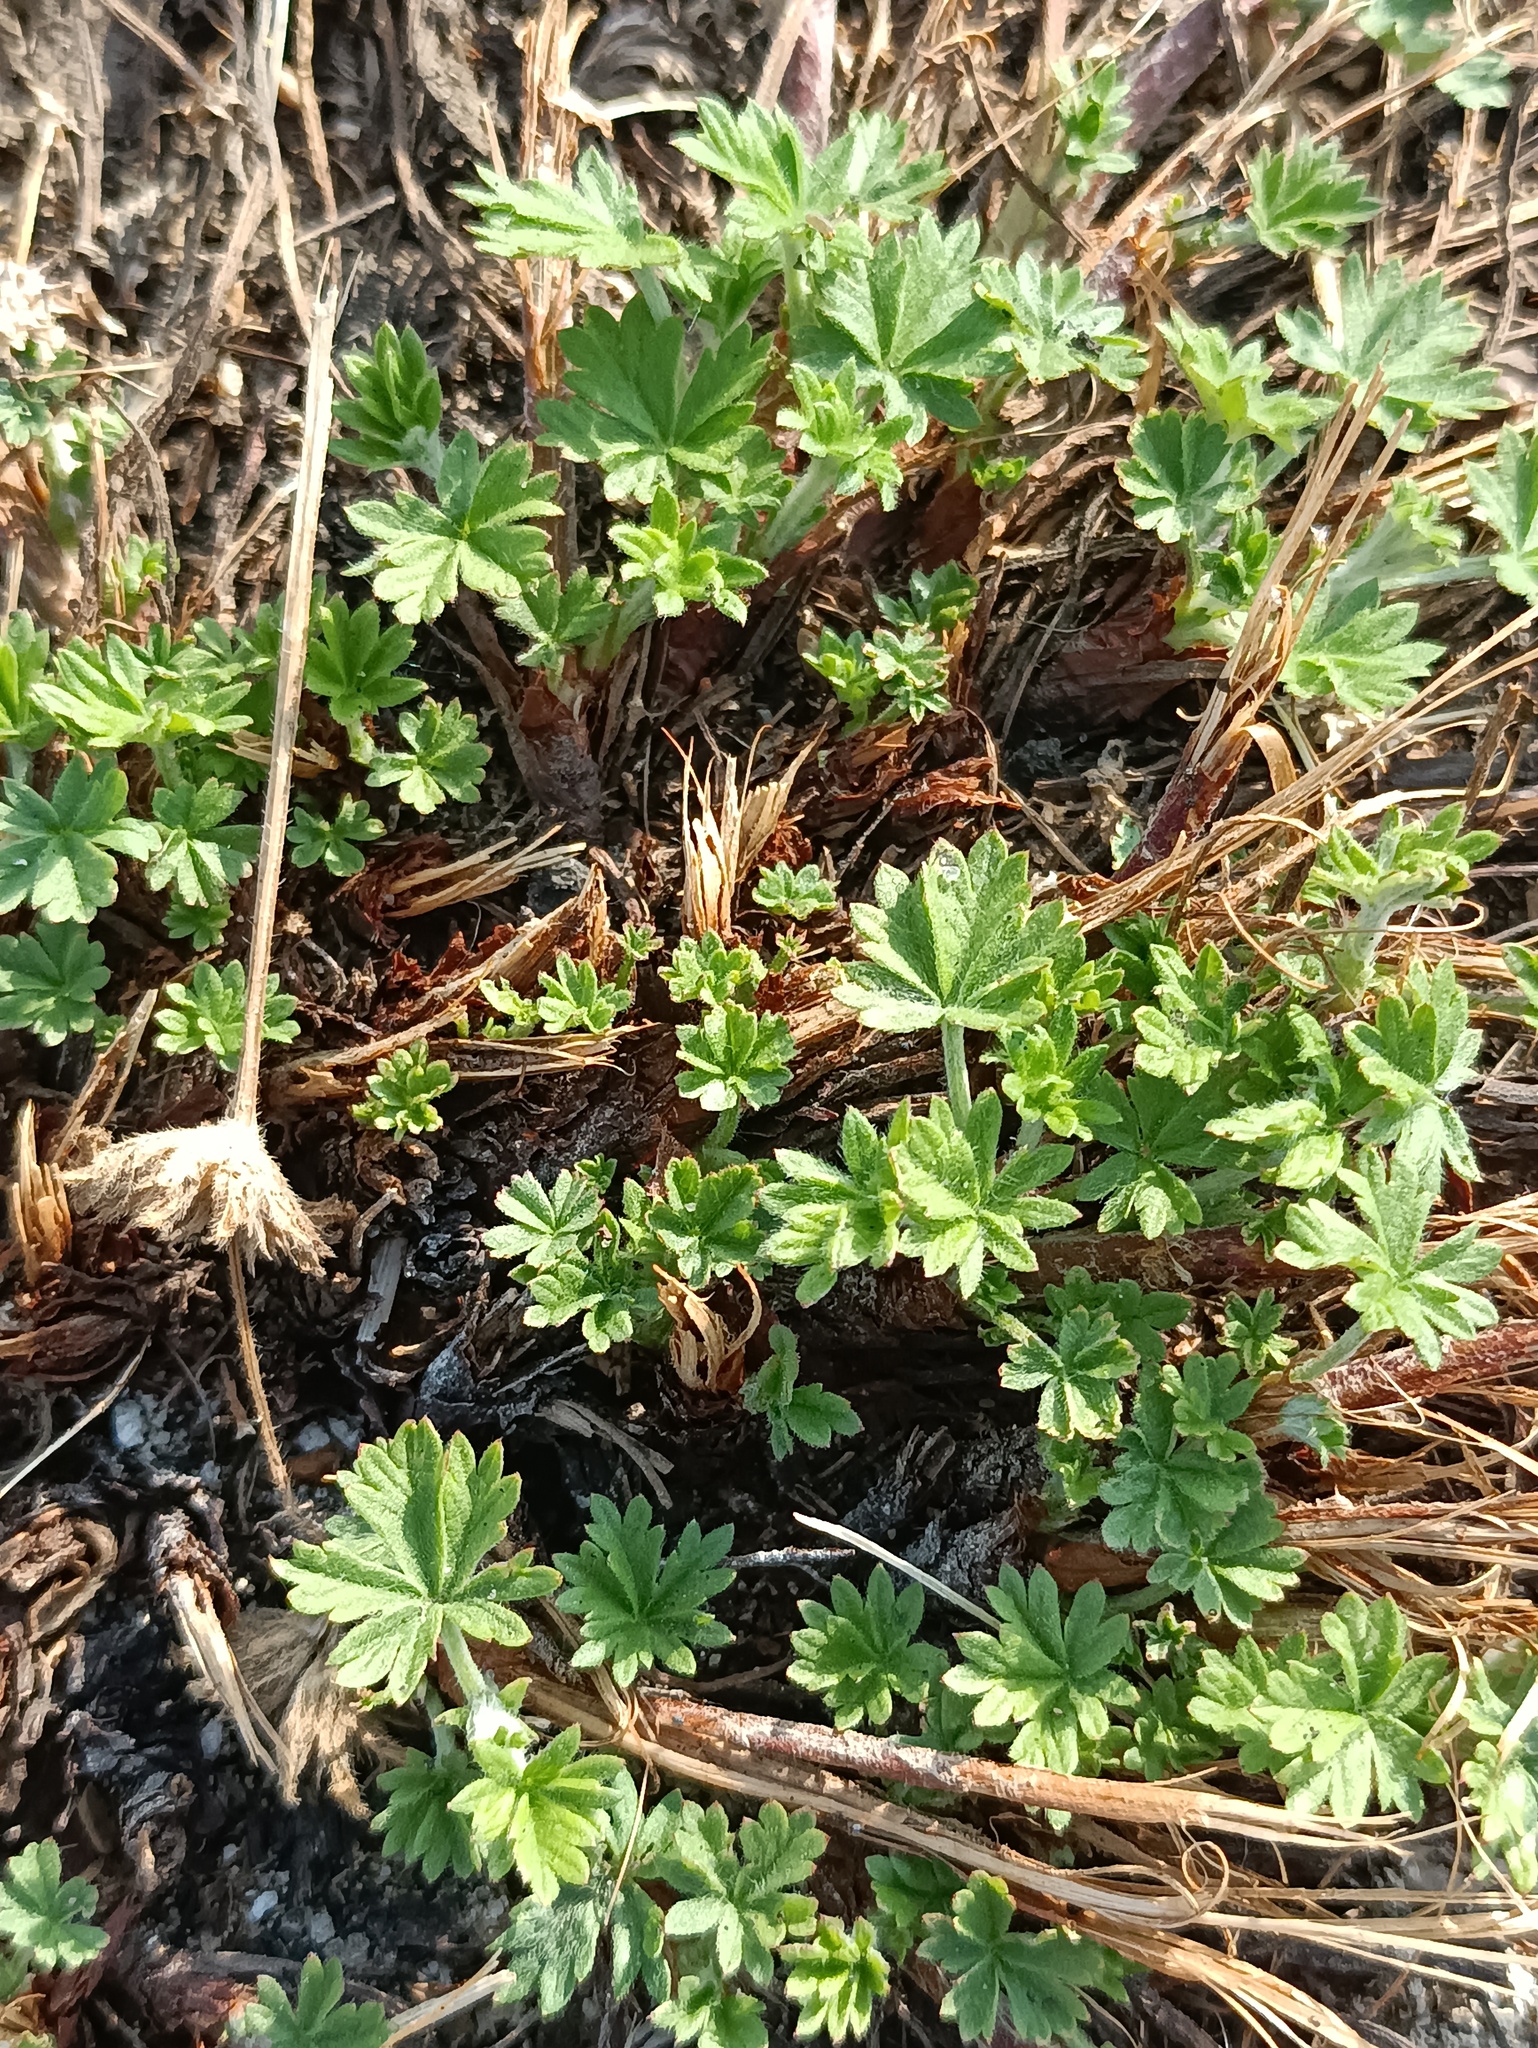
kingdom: Plantae
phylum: Tracheophyta
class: Magnoliopsida
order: Rosales
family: Rosaceae
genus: Potentilla
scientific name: Potentilla argentea
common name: Hoary cinquefoil
